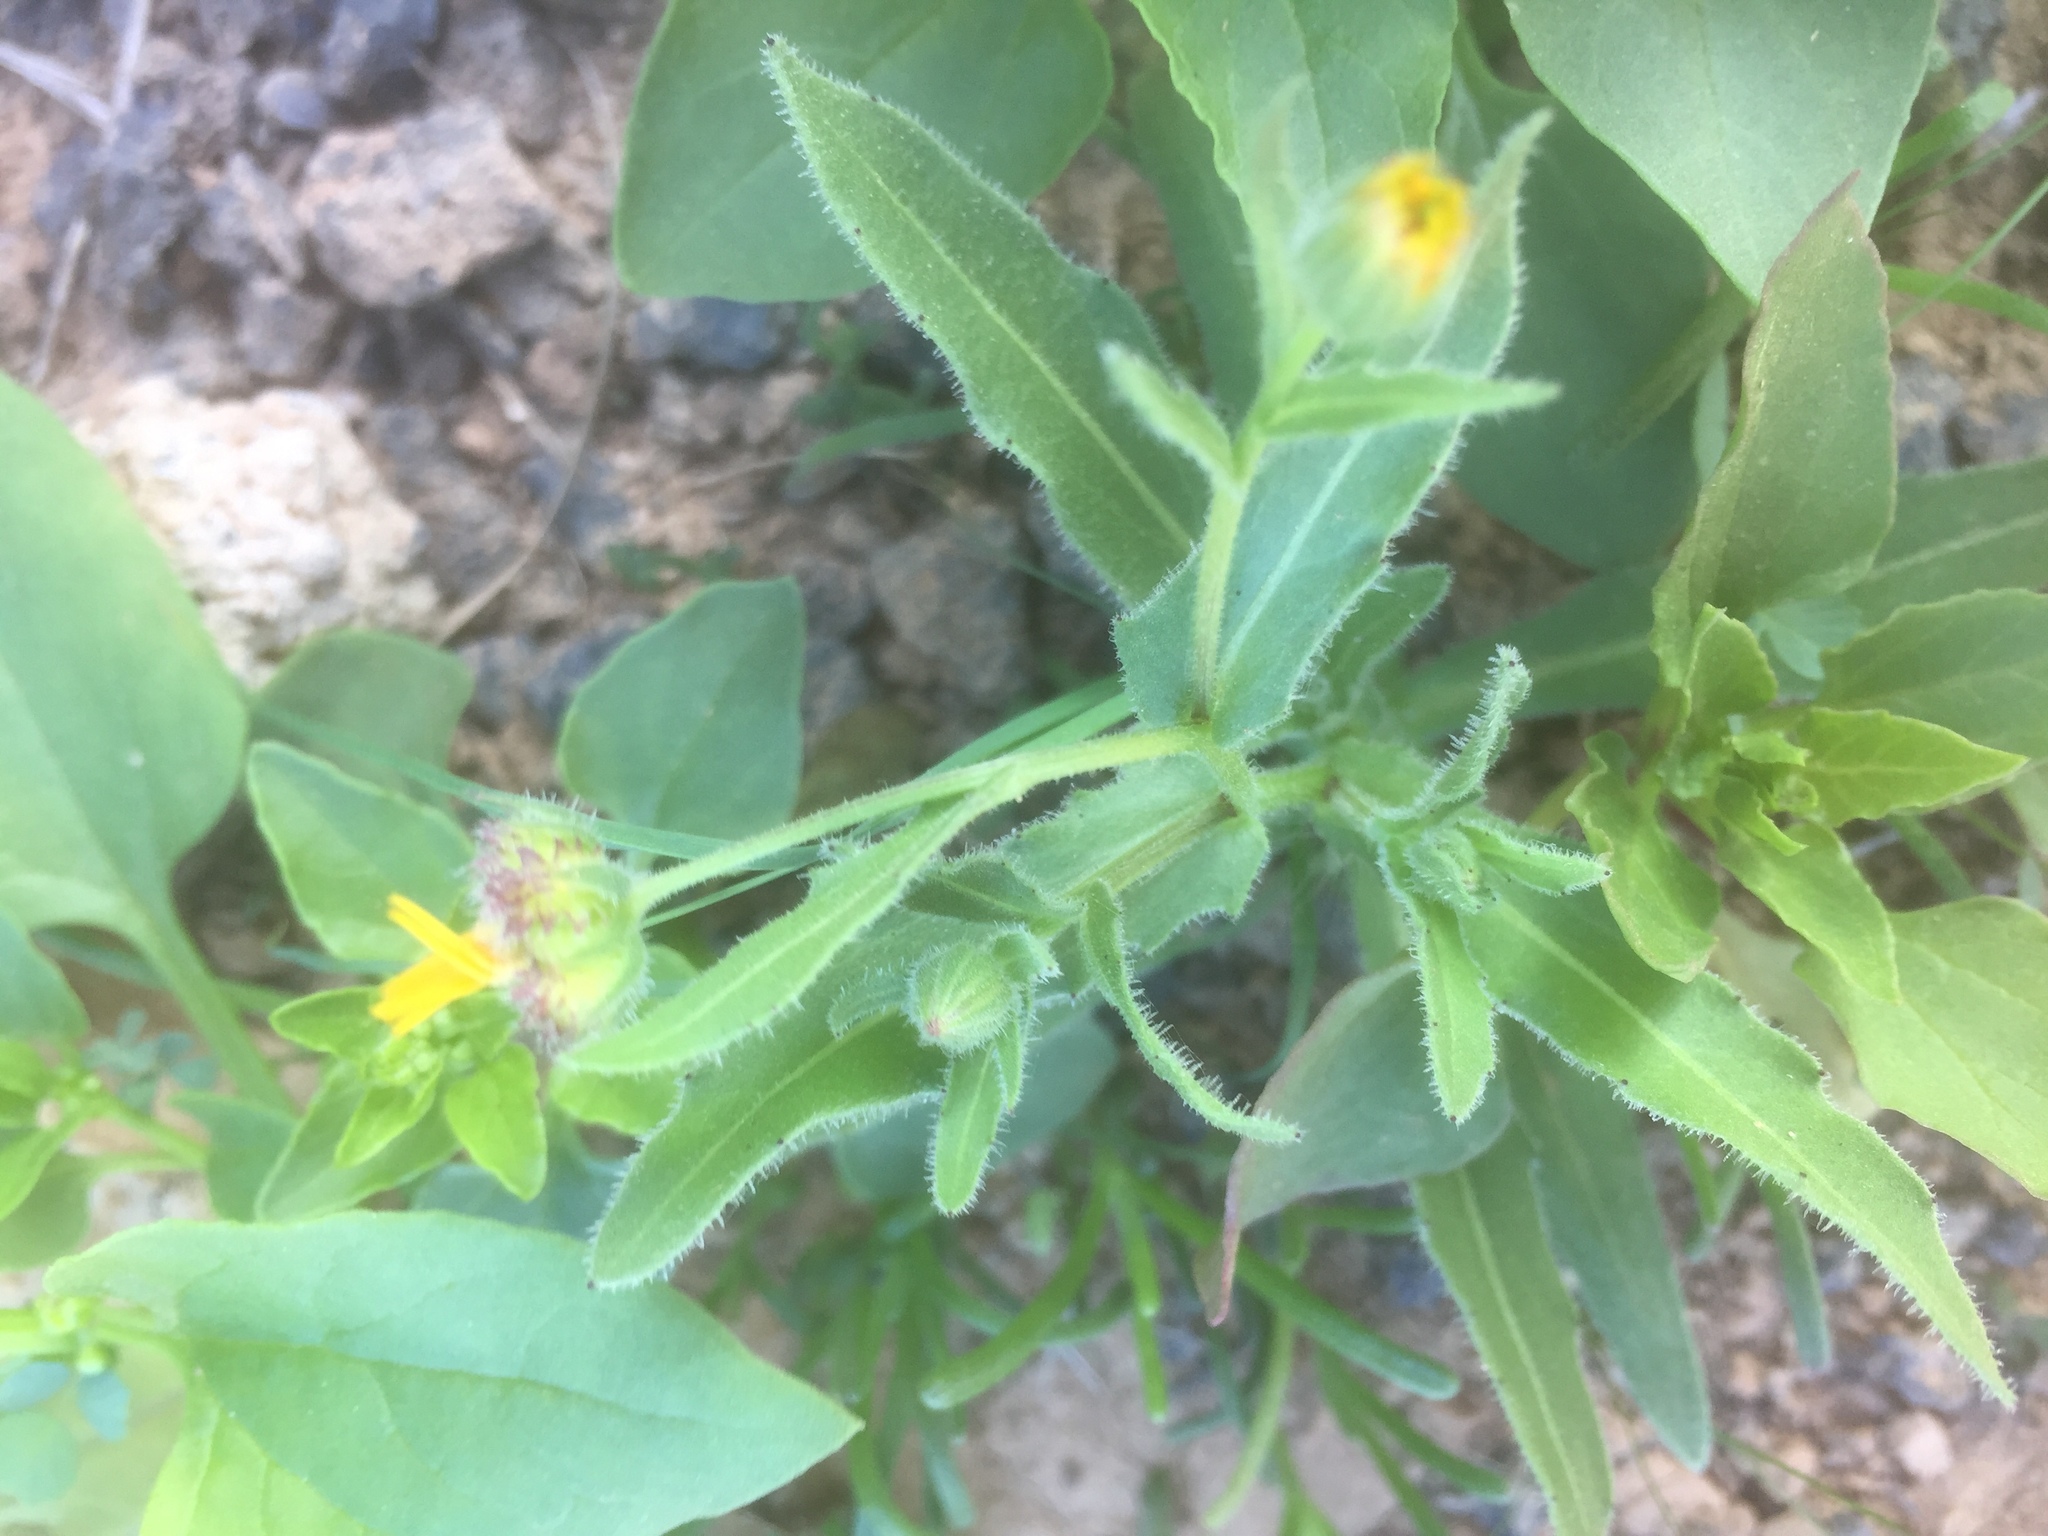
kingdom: Plantae
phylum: Tracheophyta
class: Magnoliopsida
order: Asterales
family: Asteraceae
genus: Calendula
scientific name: Calendula arvensis
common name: Field marigold
